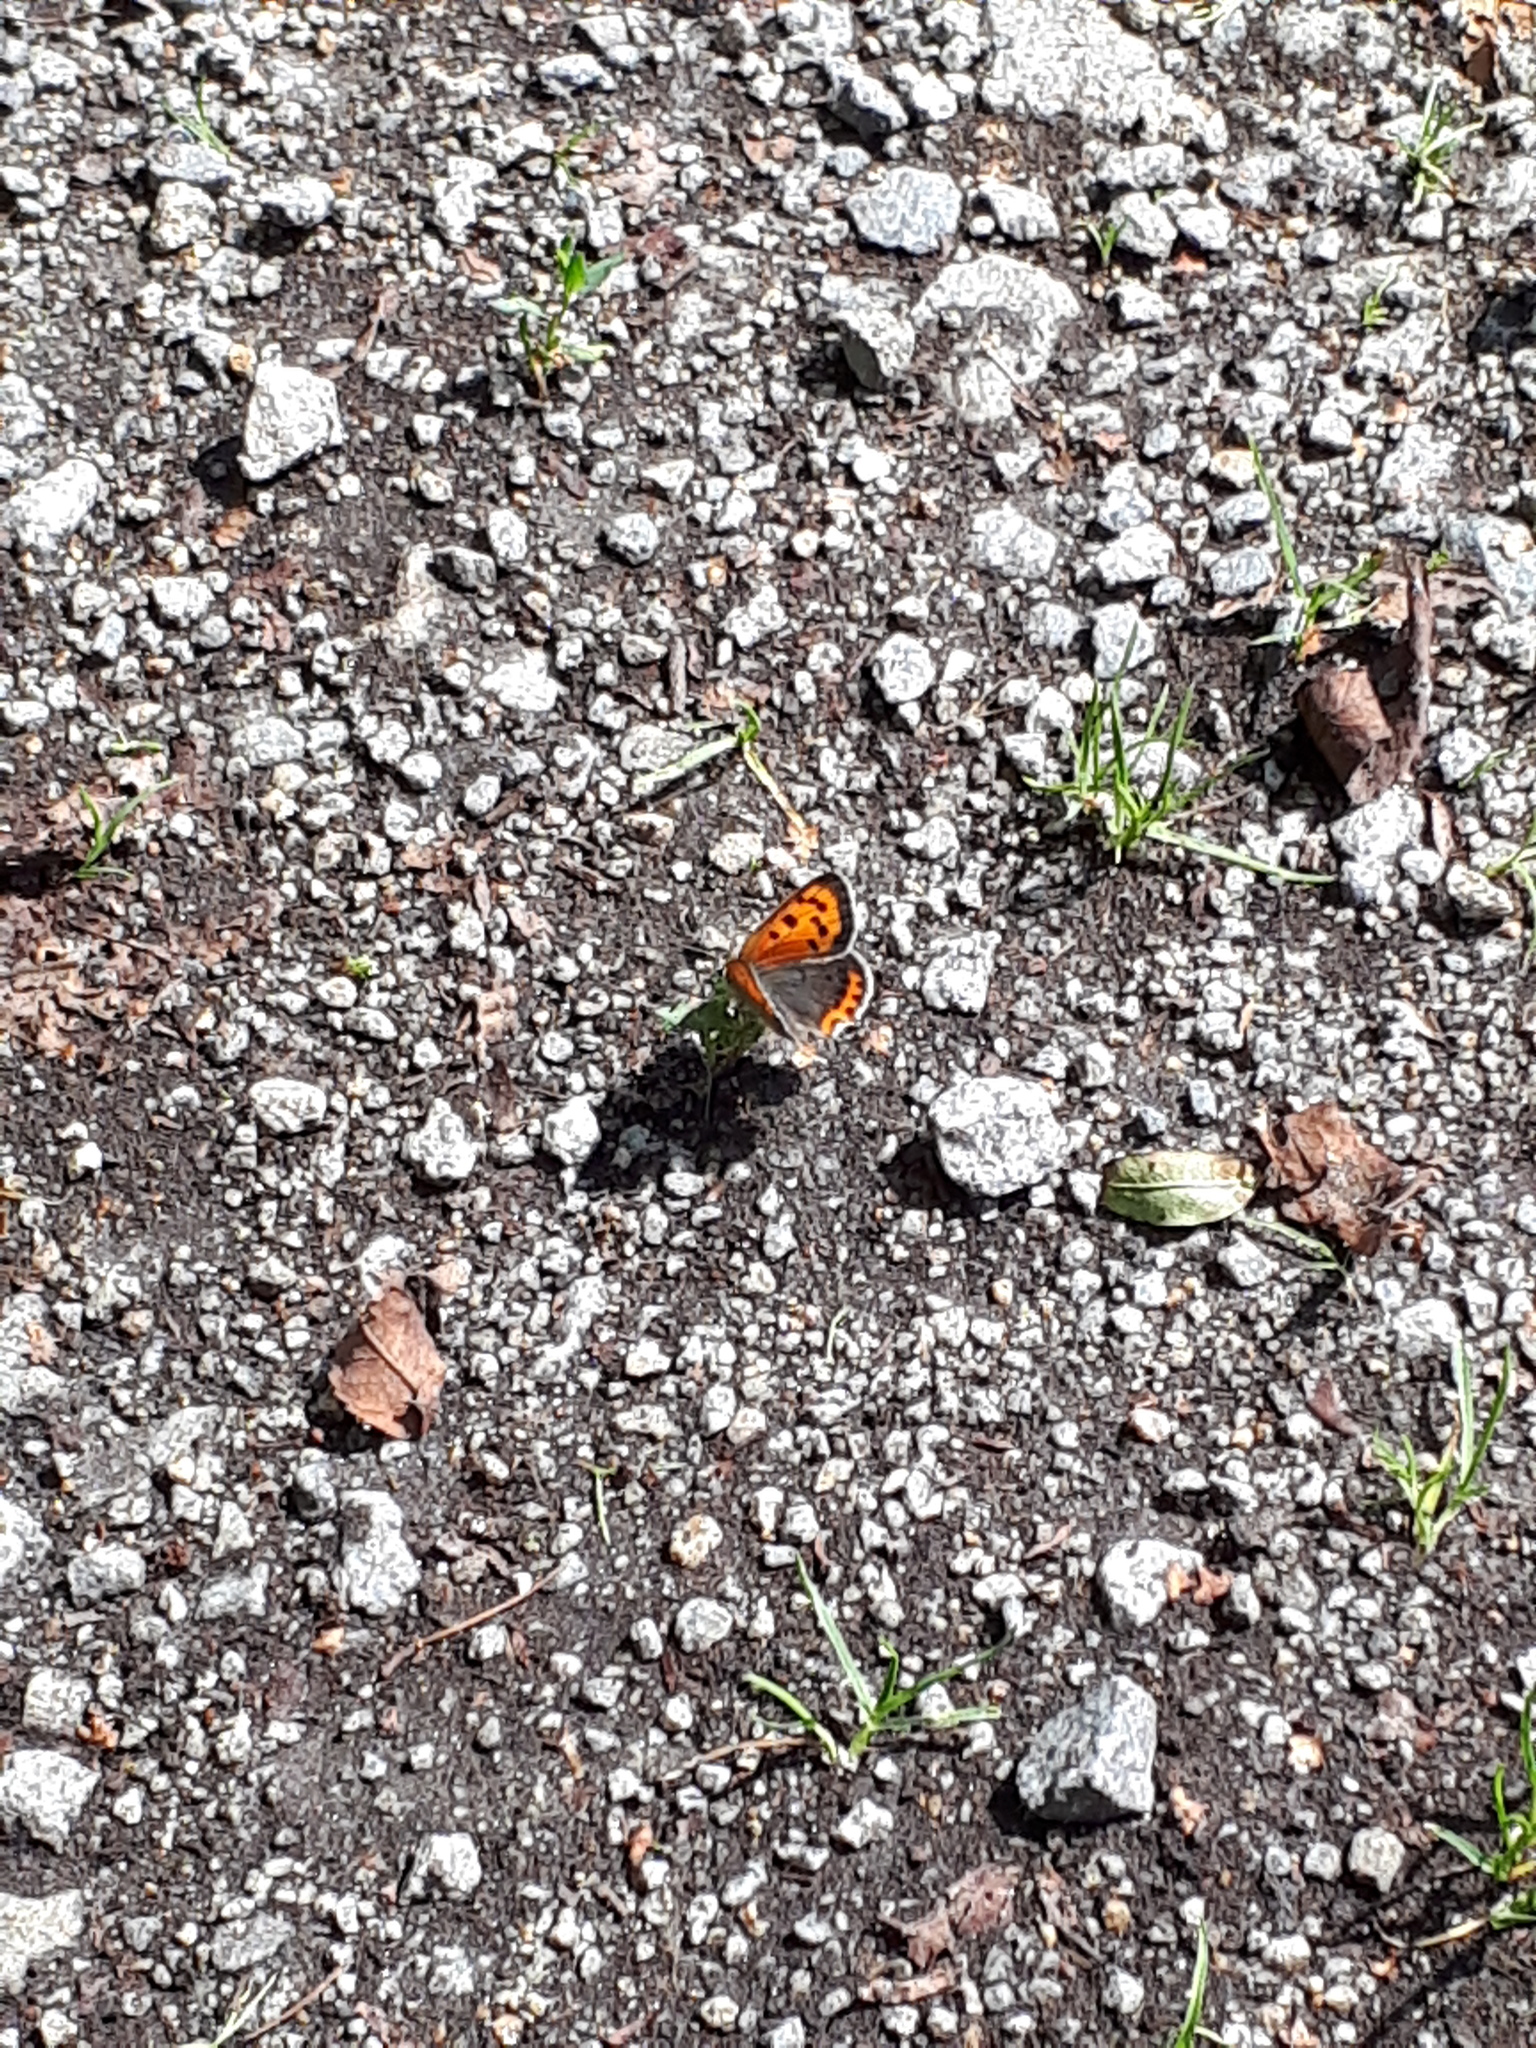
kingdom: Animalia
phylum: Arthropoda
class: Insecta
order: Lepidoptera
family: Lycaenidae
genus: Lycaena
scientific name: Lycaena phlaeas
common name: Small copper
